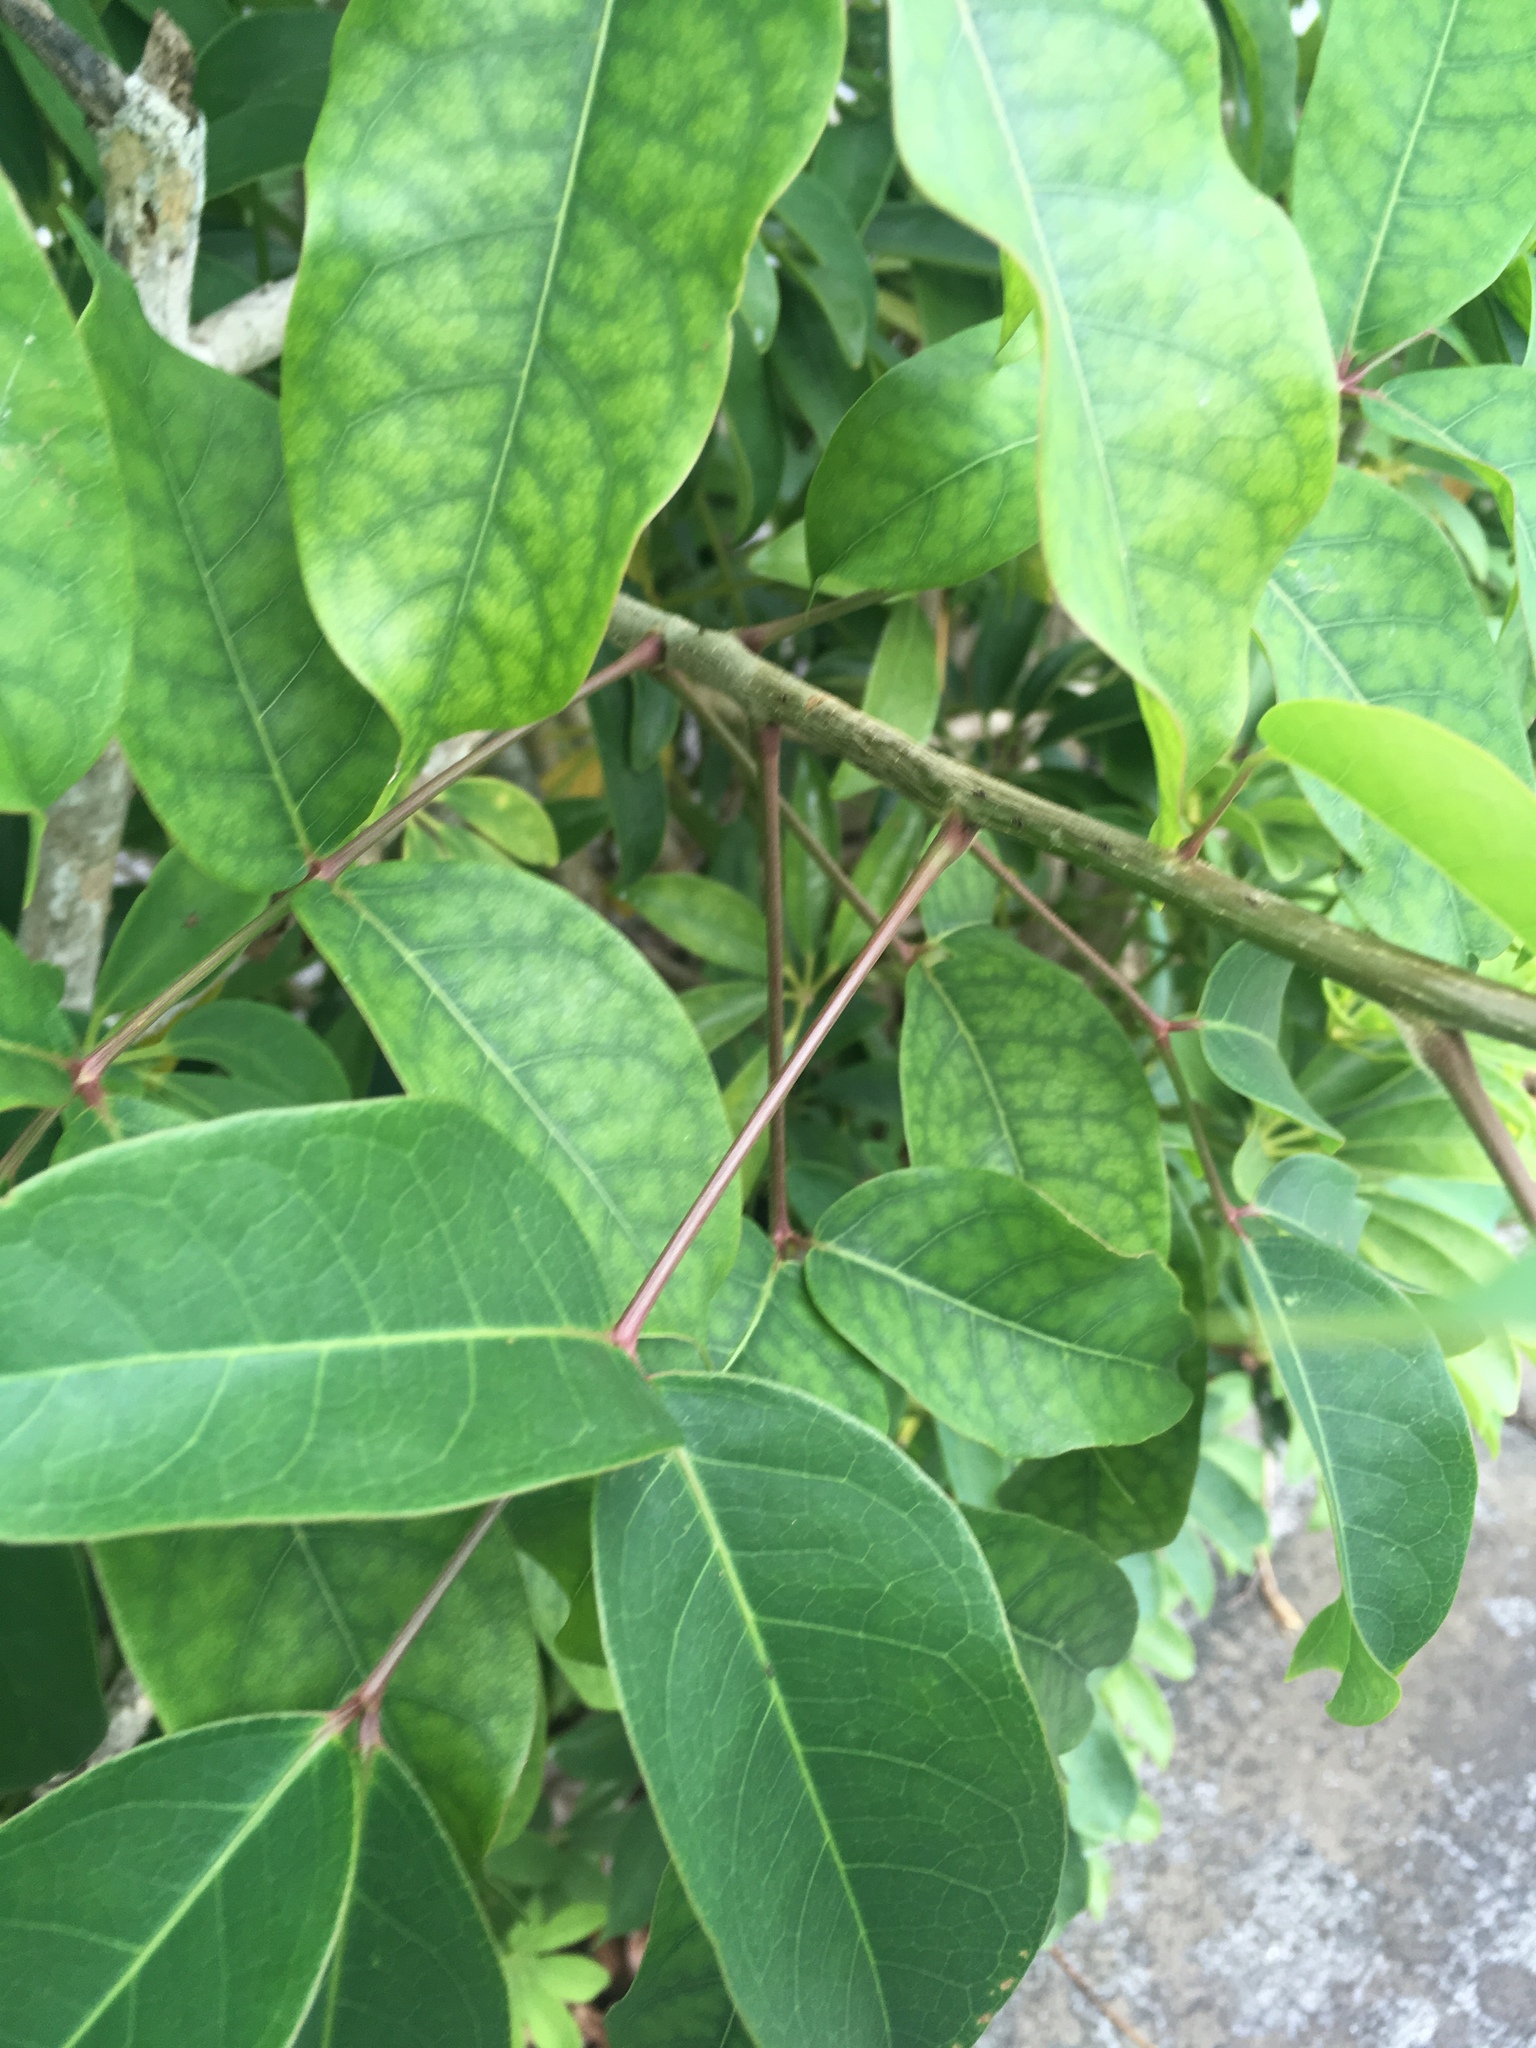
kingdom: Plantae
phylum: Tracheophyta
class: Magnoliopsida
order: Sapindales
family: Burseraceae
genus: Bursera
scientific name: Bursera simaruba
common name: Turpentine tree
